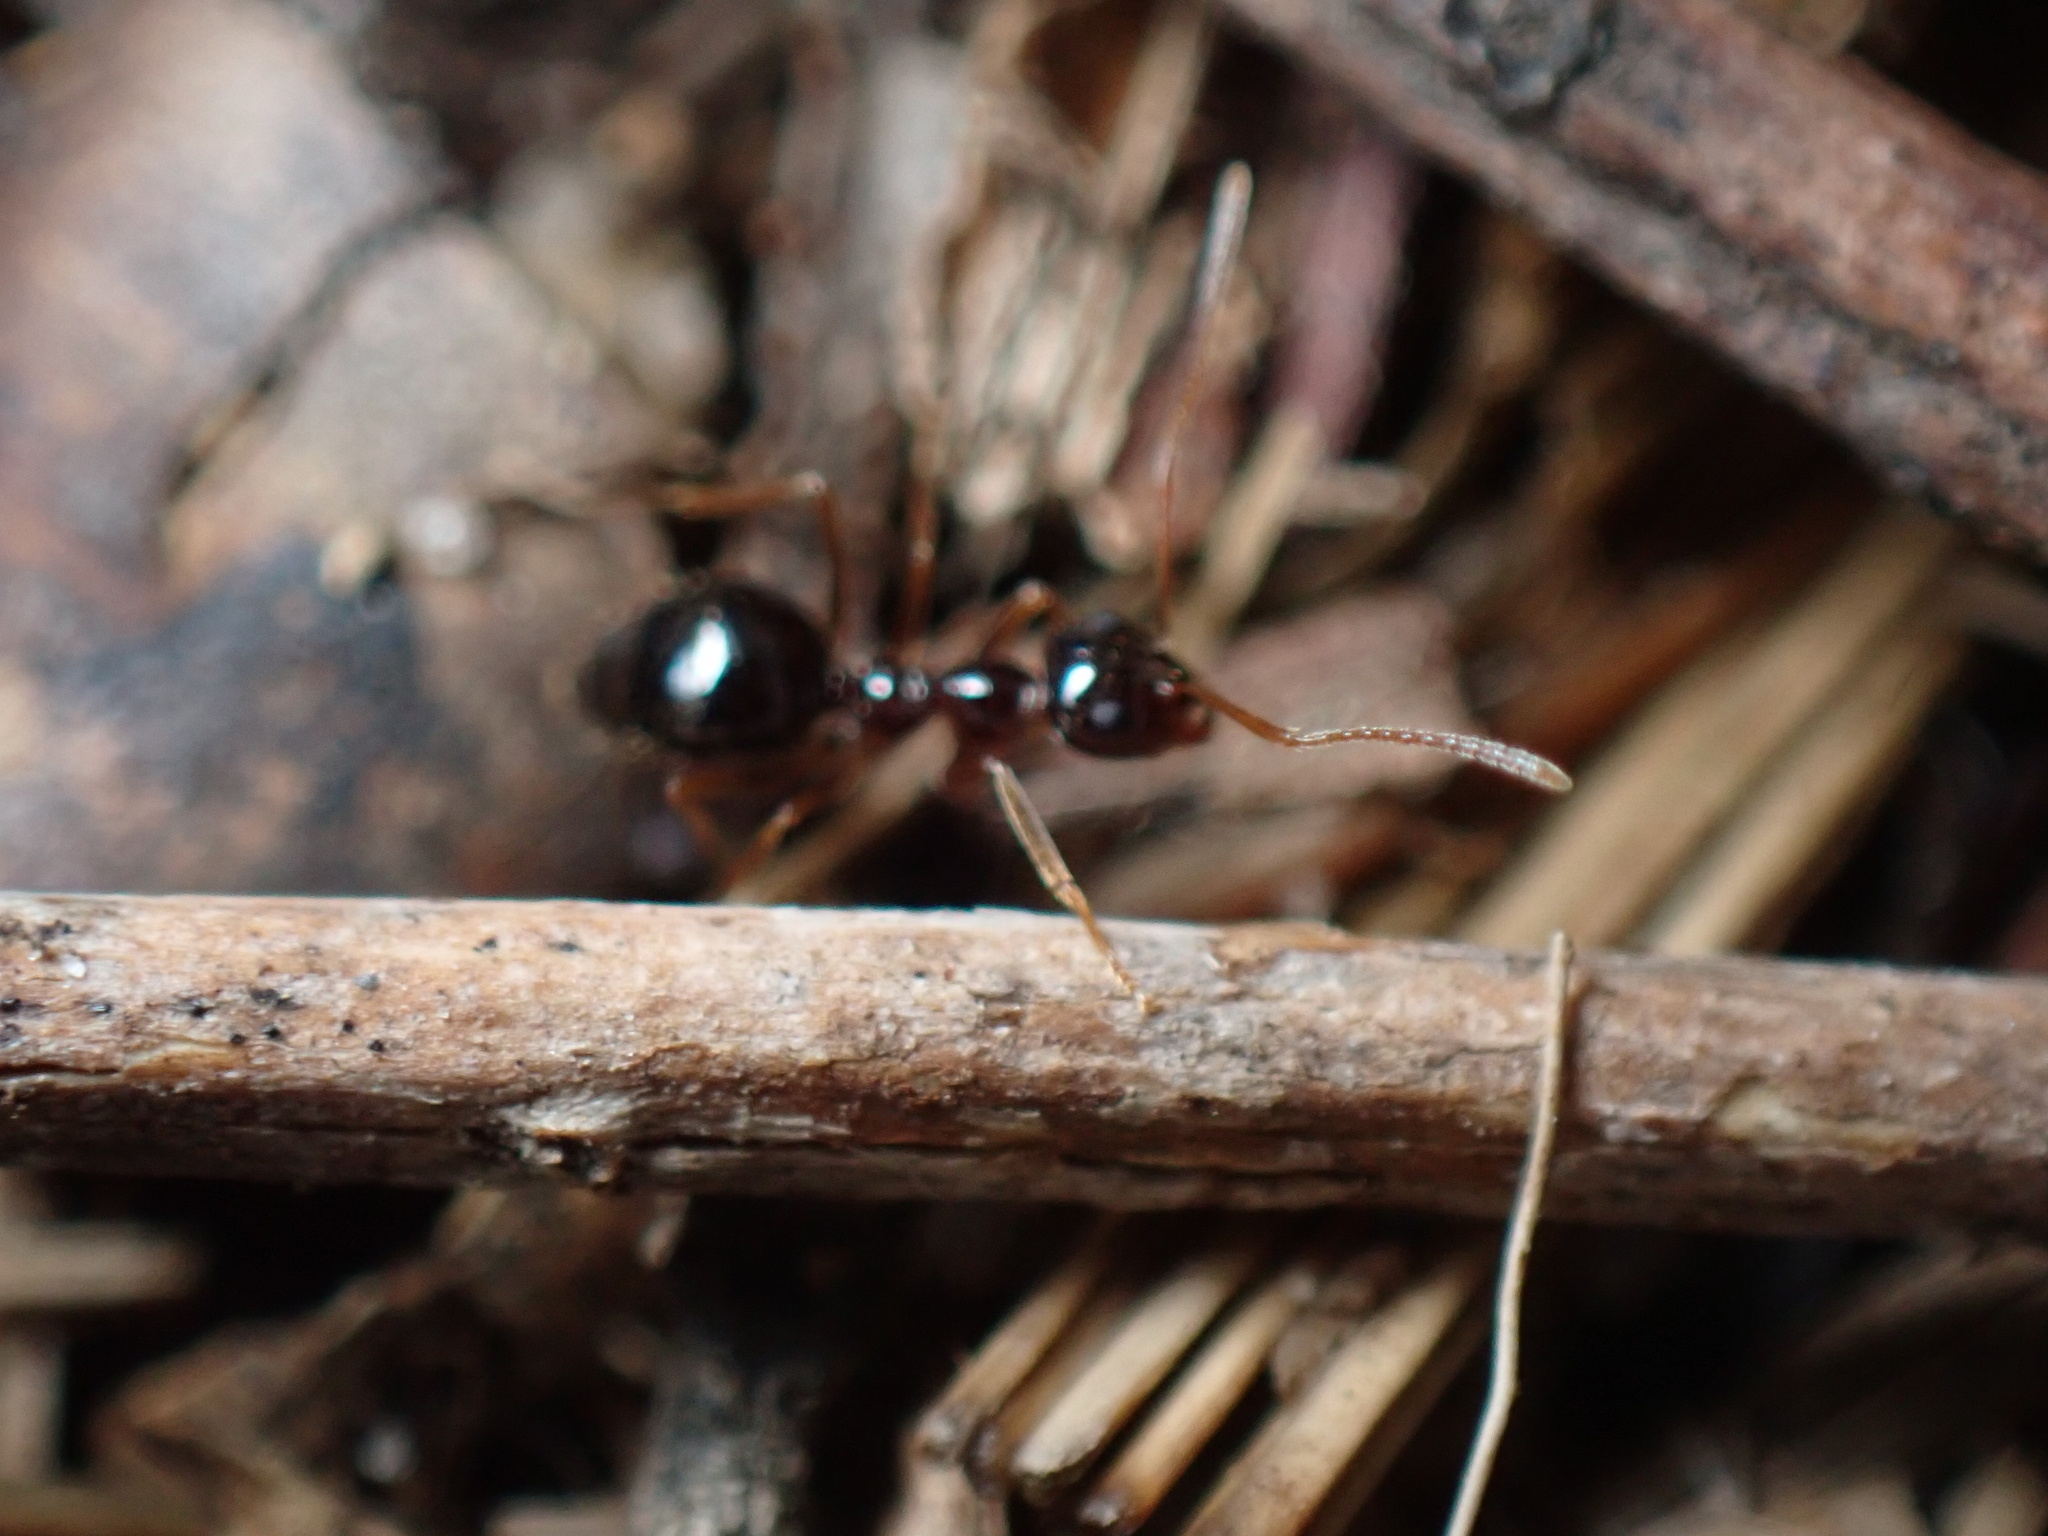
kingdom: Animalia
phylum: Arthropoda
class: Insecta
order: Hymenoptera
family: Formicidae
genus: Prenolepis
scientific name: Prenolepis imparis
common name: Small honey ant
